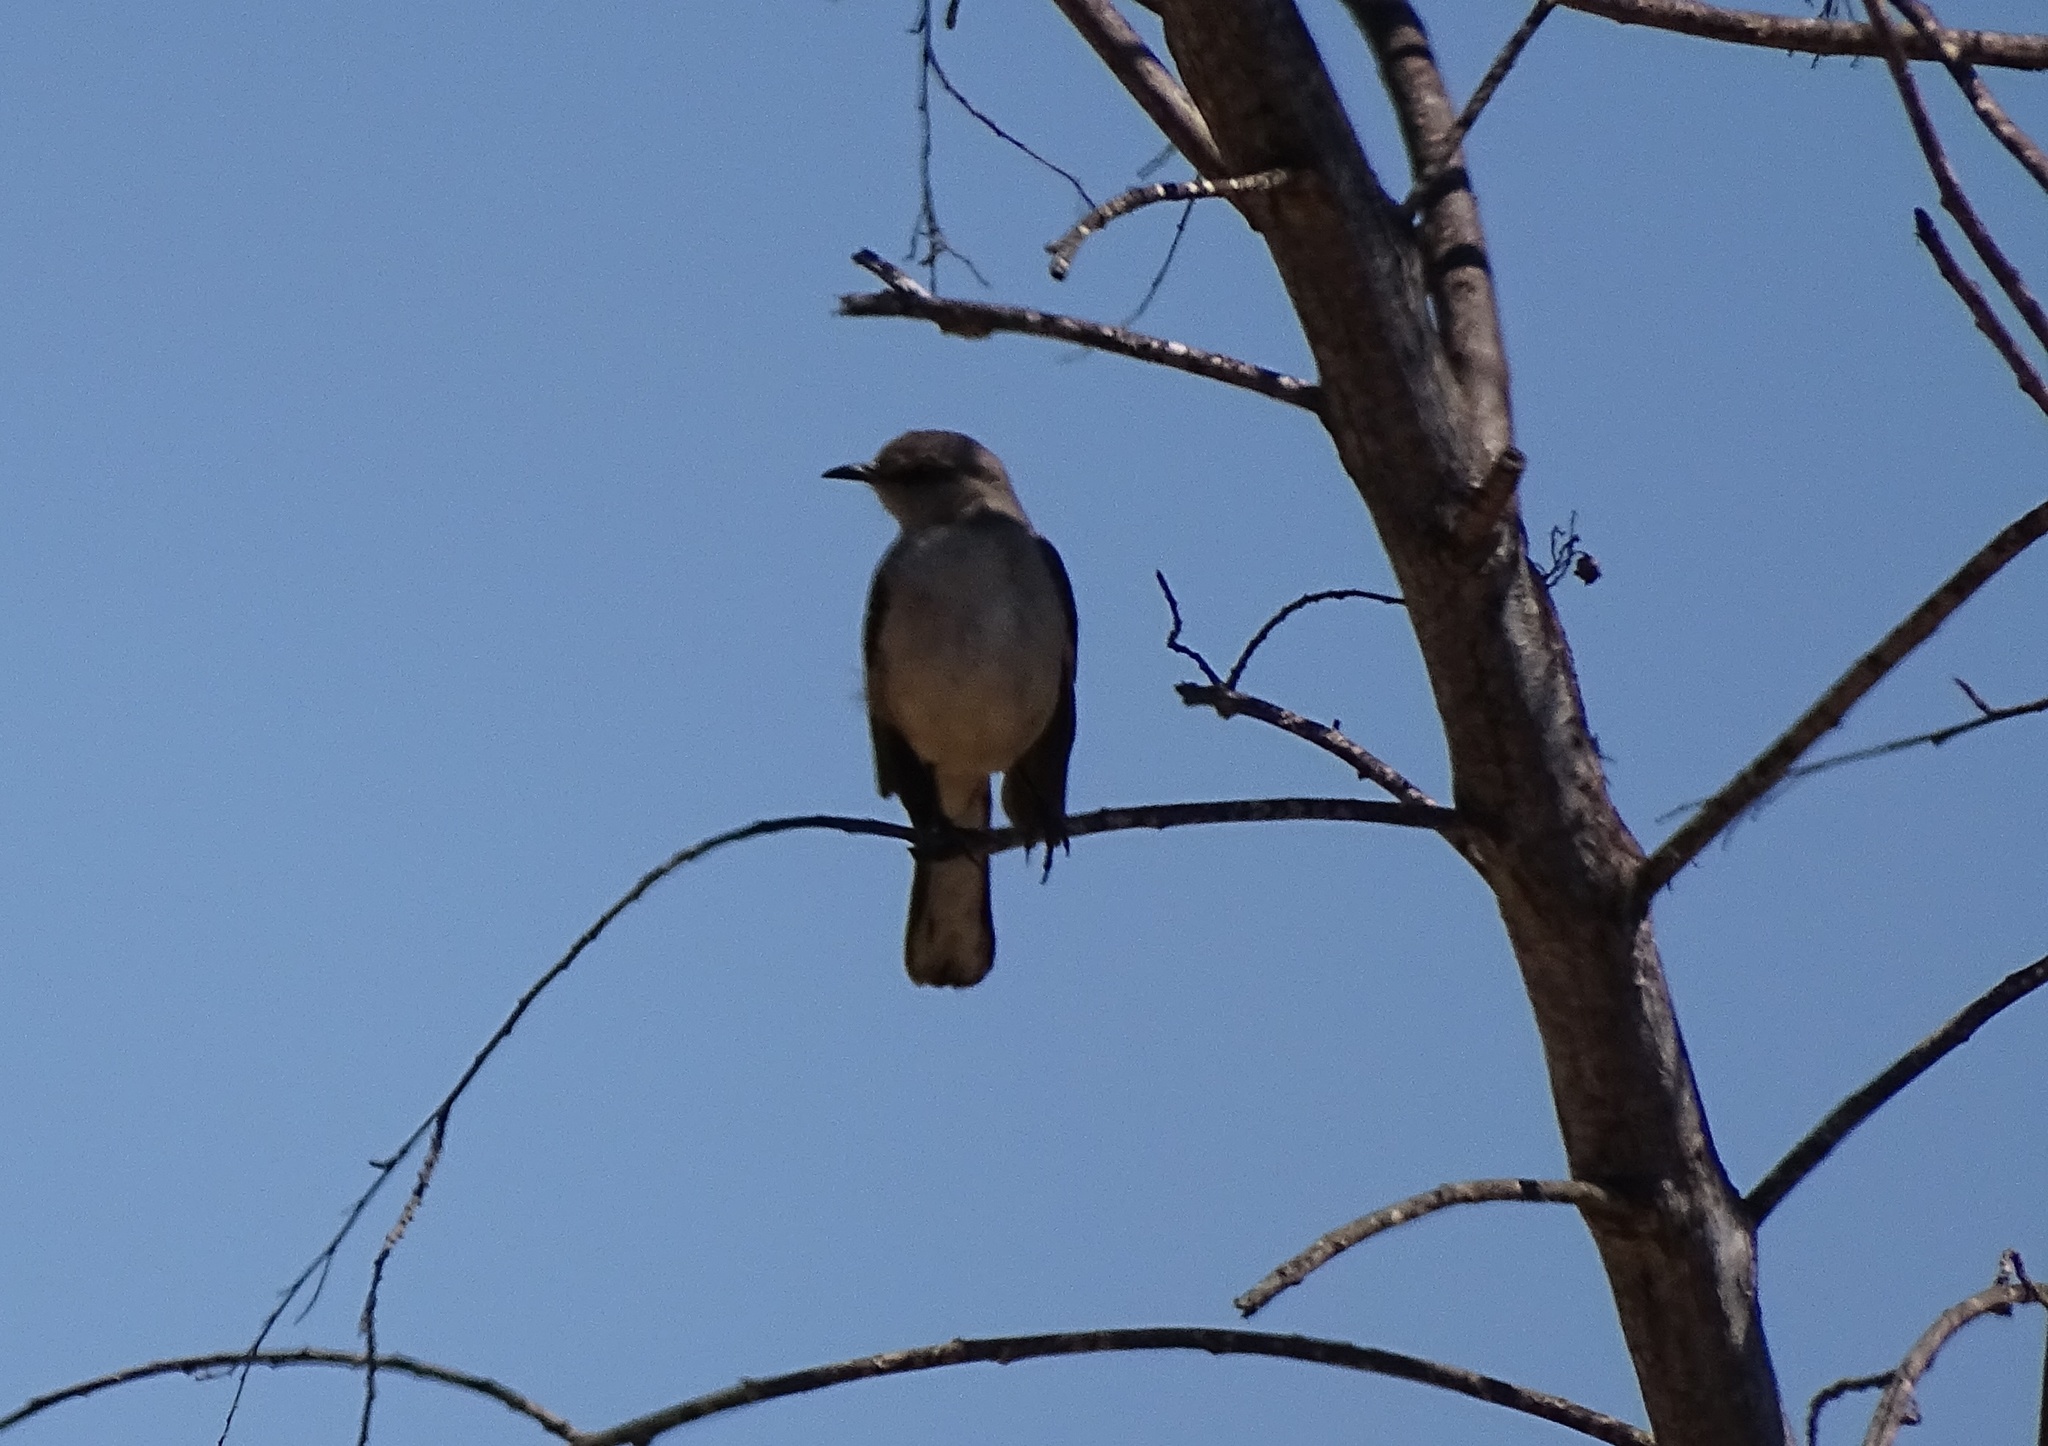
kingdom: Animalia
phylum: Chordata
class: Aves
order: Passeriformes
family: Mimidae
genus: Mimus
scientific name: Mimus polyglottos
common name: Northern mockingbird
